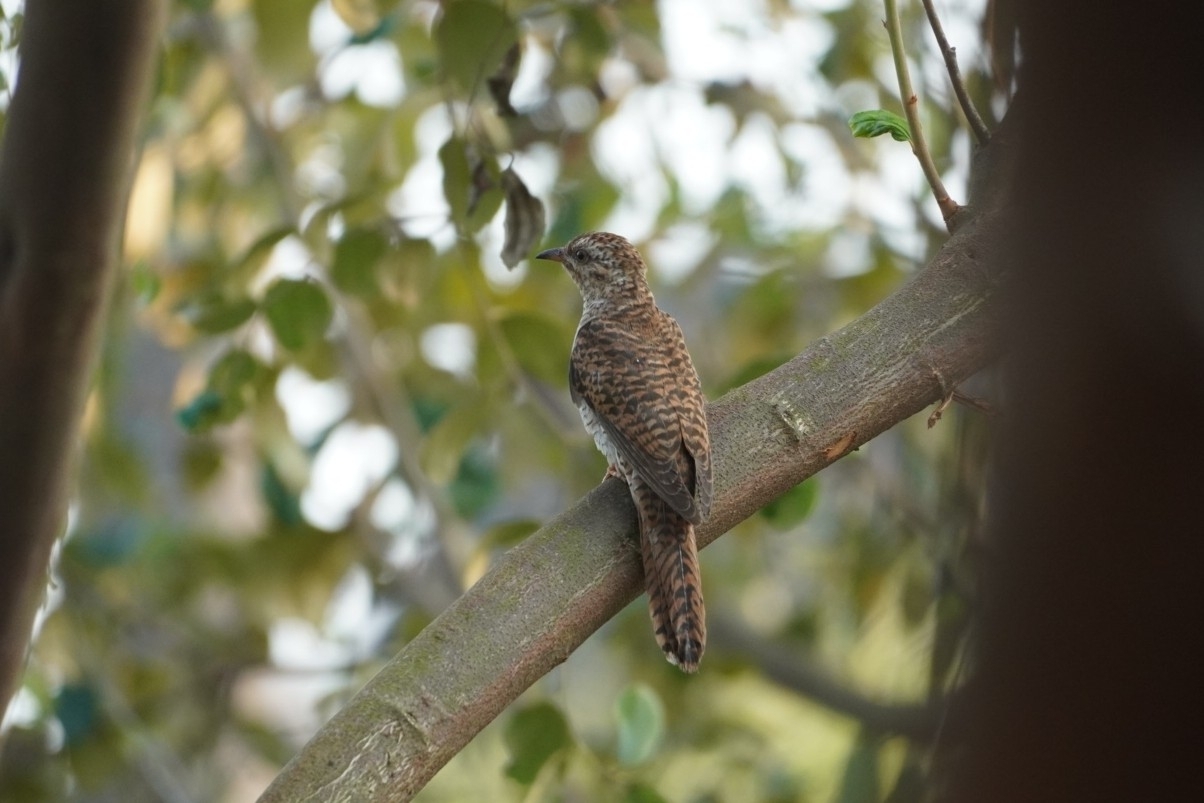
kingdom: Animalia
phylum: Chordata
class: Aves
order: Cuculiformes
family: Cuculidae
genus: Cacomantis
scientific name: Cacomantis merulinus
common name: Plaintive cuckoo
